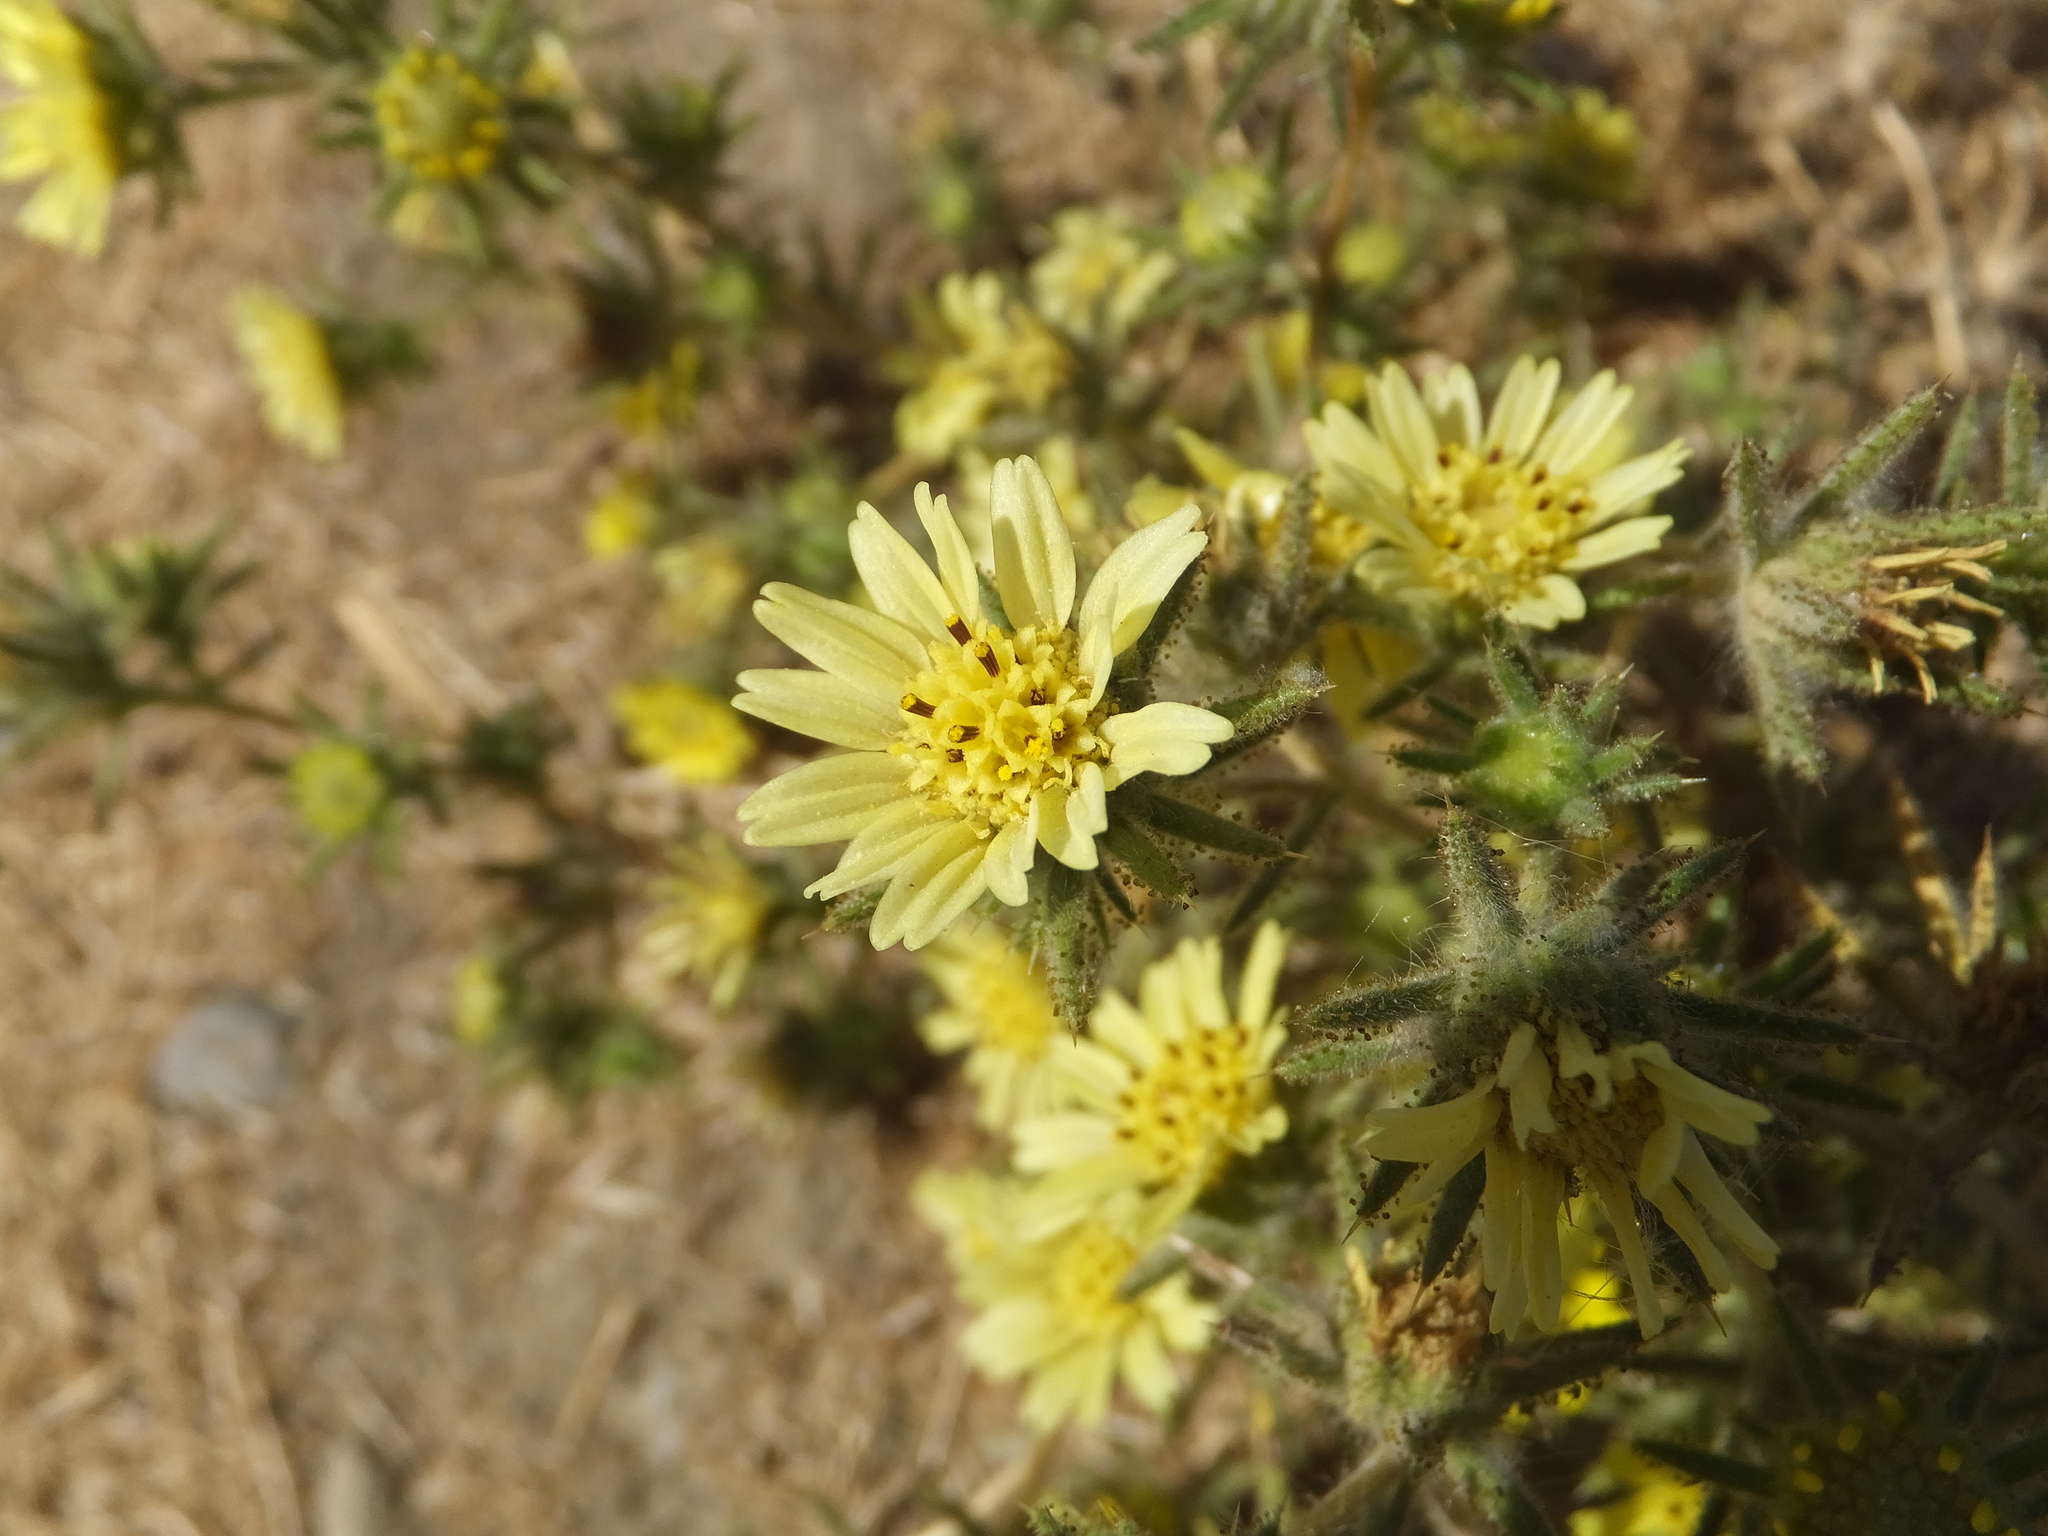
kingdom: Plantae
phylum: Tracheophyta
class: Magnoliopsida
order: Asterales
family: Asteraceae
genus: Centromadia
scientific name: Centromadia fitchii
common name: Fitch's spikeweed
